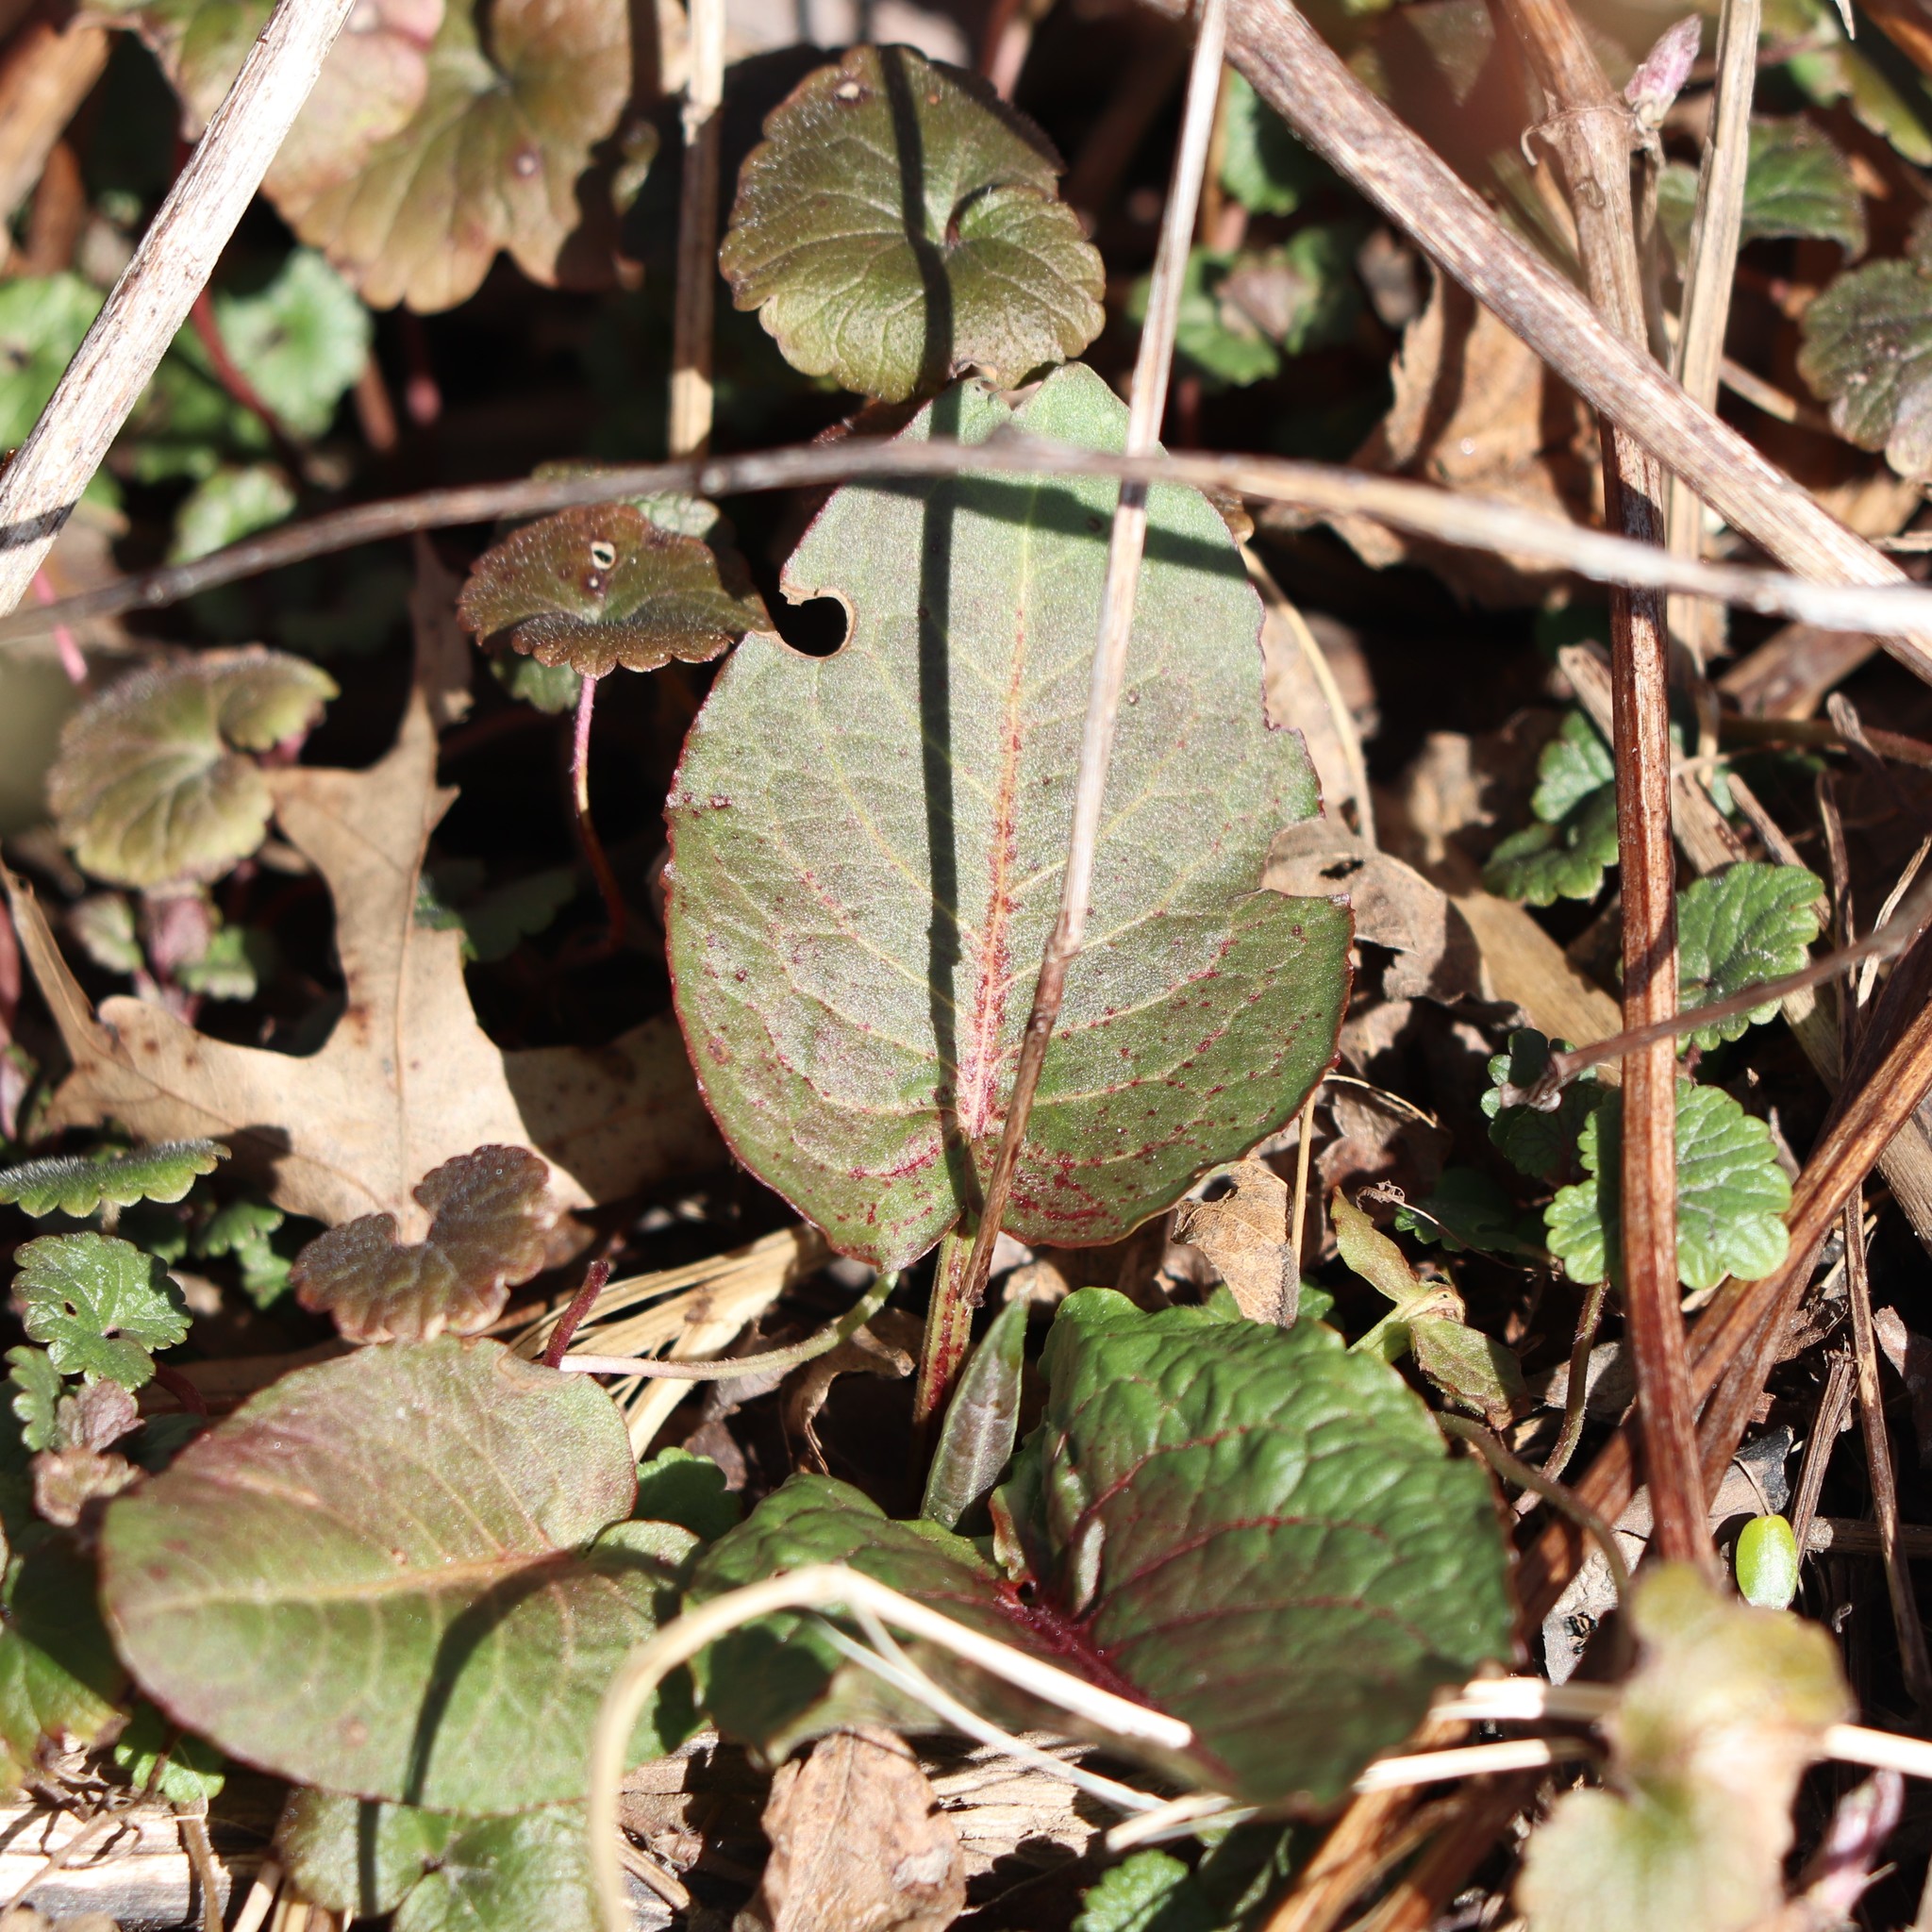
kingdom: Plantae
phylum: Tracheophyta
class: Magnoliopsida
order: Caryophyllales
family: Polygonaceae
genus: Rumex
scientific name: Rumex obtusifolius
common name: Bitter dock
